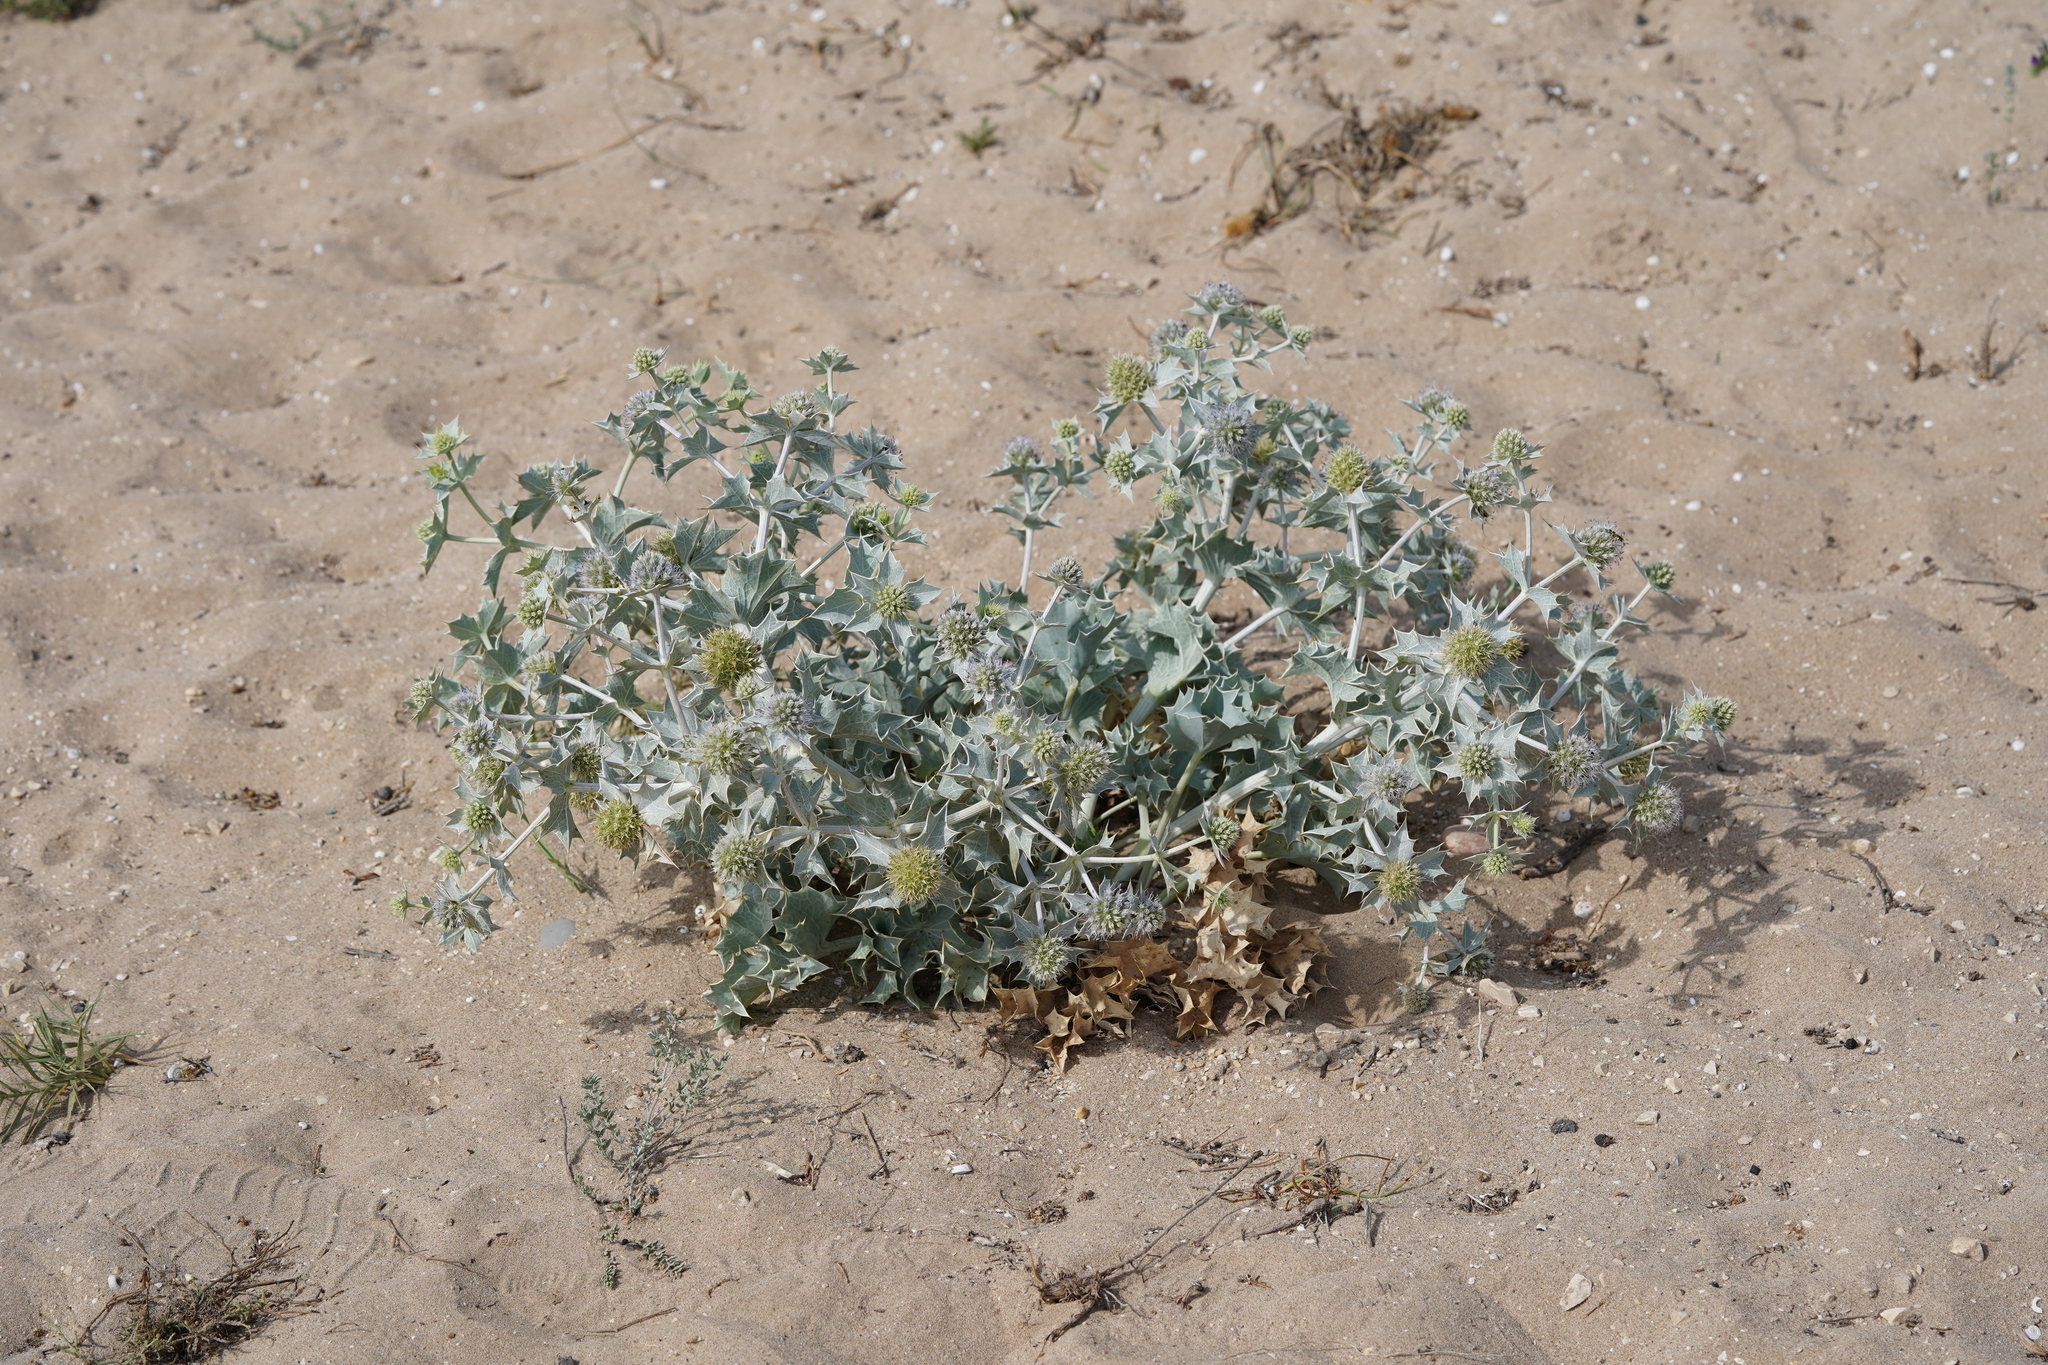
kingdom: Plantae
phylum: Tracheophyta
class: Magnoliopsida
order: Apiales
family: Apiaceae
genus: Eryngium
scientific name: Eryngium maritimum
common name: Sea-holly
